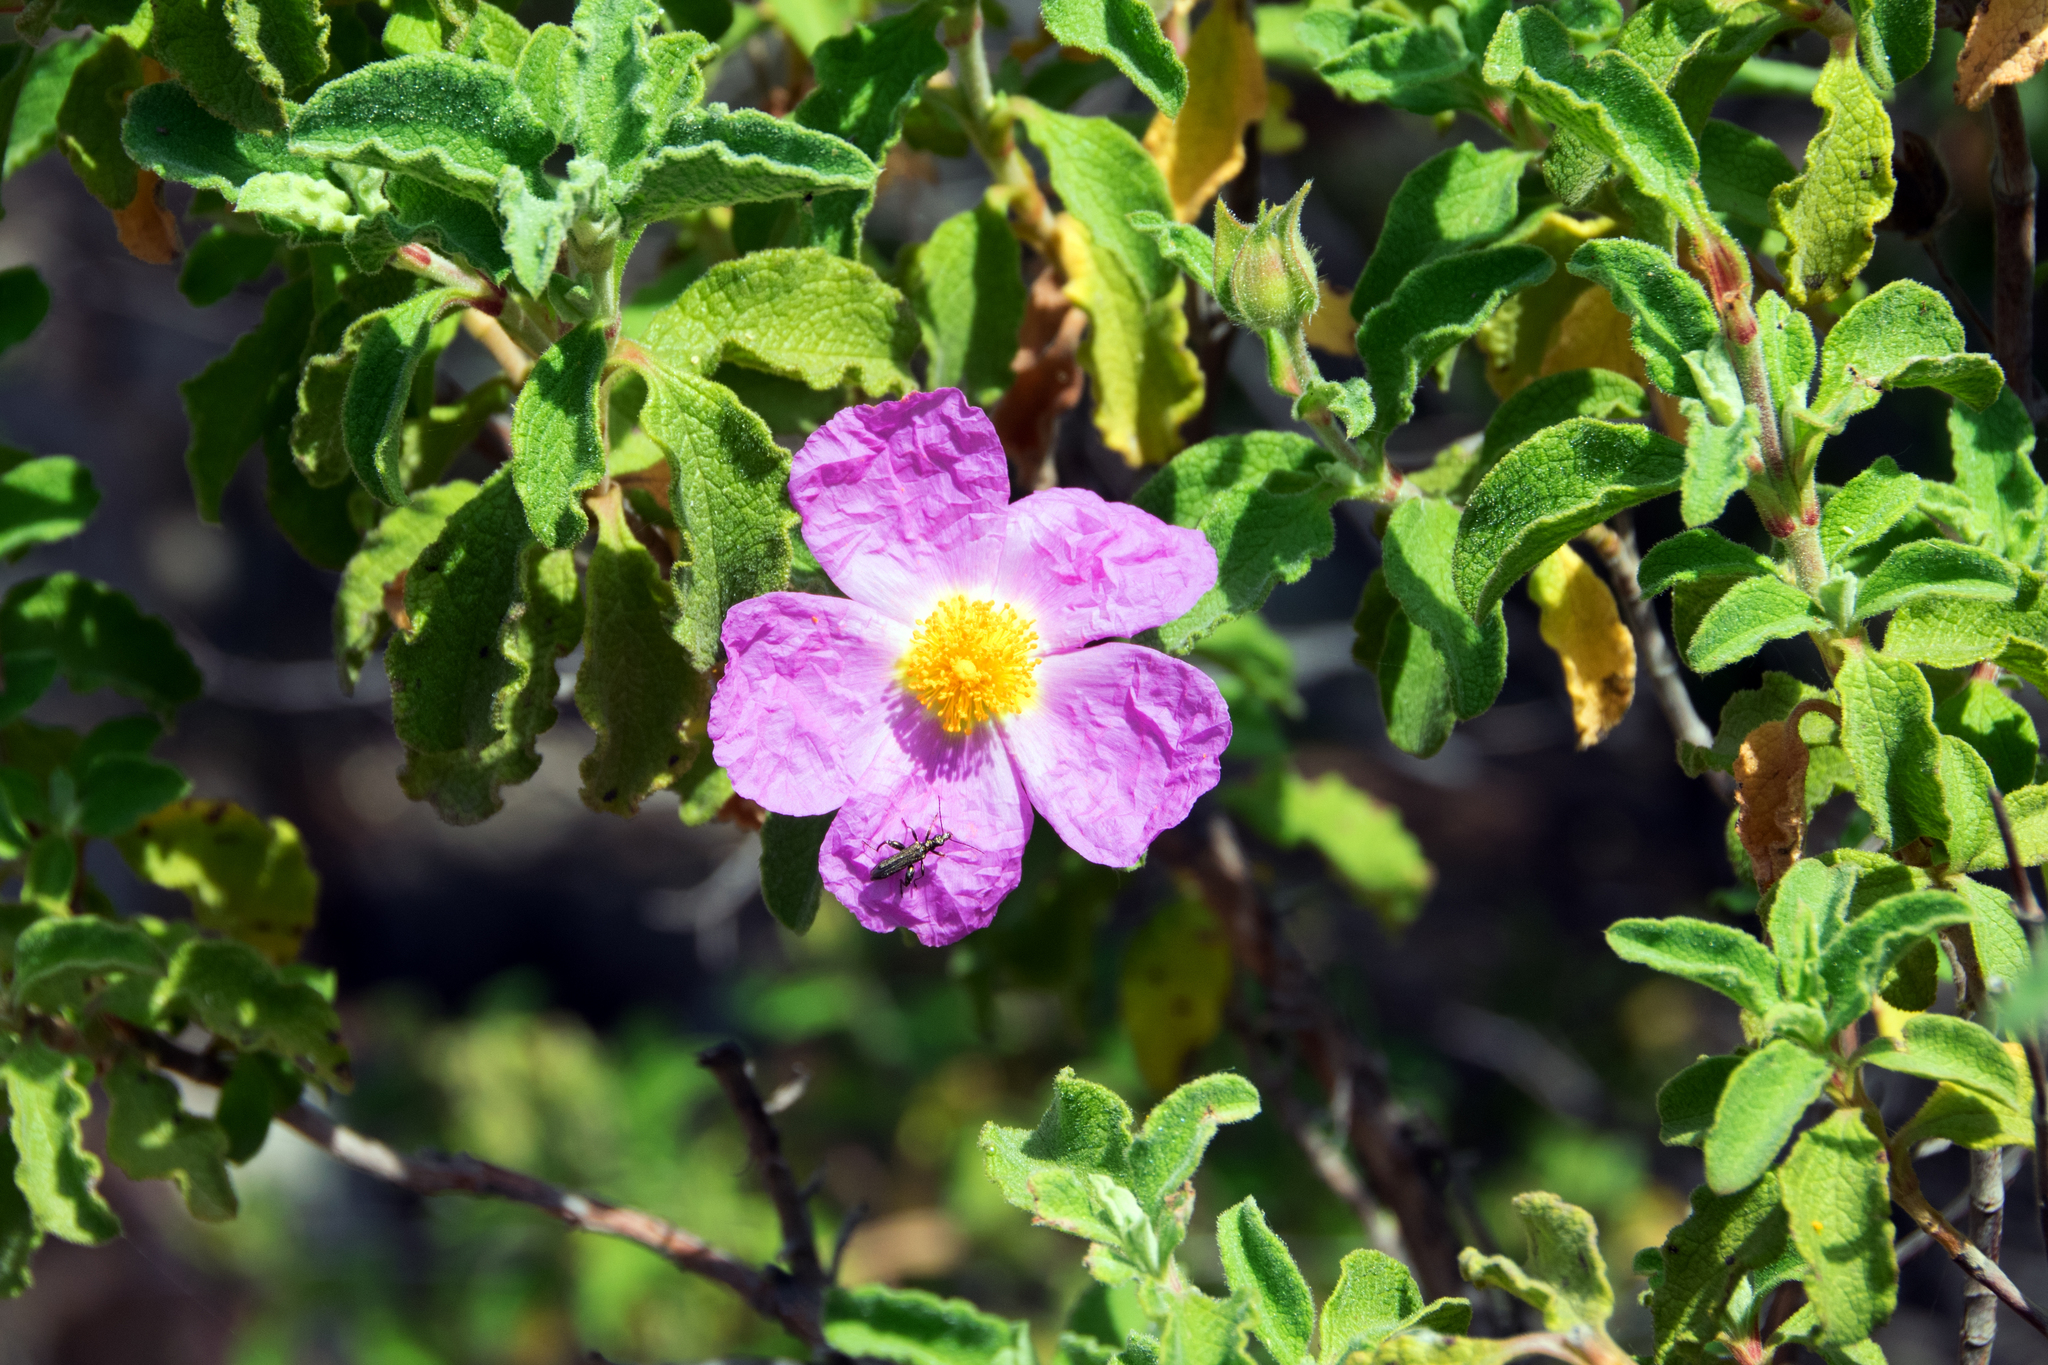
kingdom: Plantae
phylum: Tracheophyta
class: Magnoliopsida
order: Malvales
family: Cistaceae
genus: Cistus
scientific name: Cistus creticus
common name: Cretan rockrose
